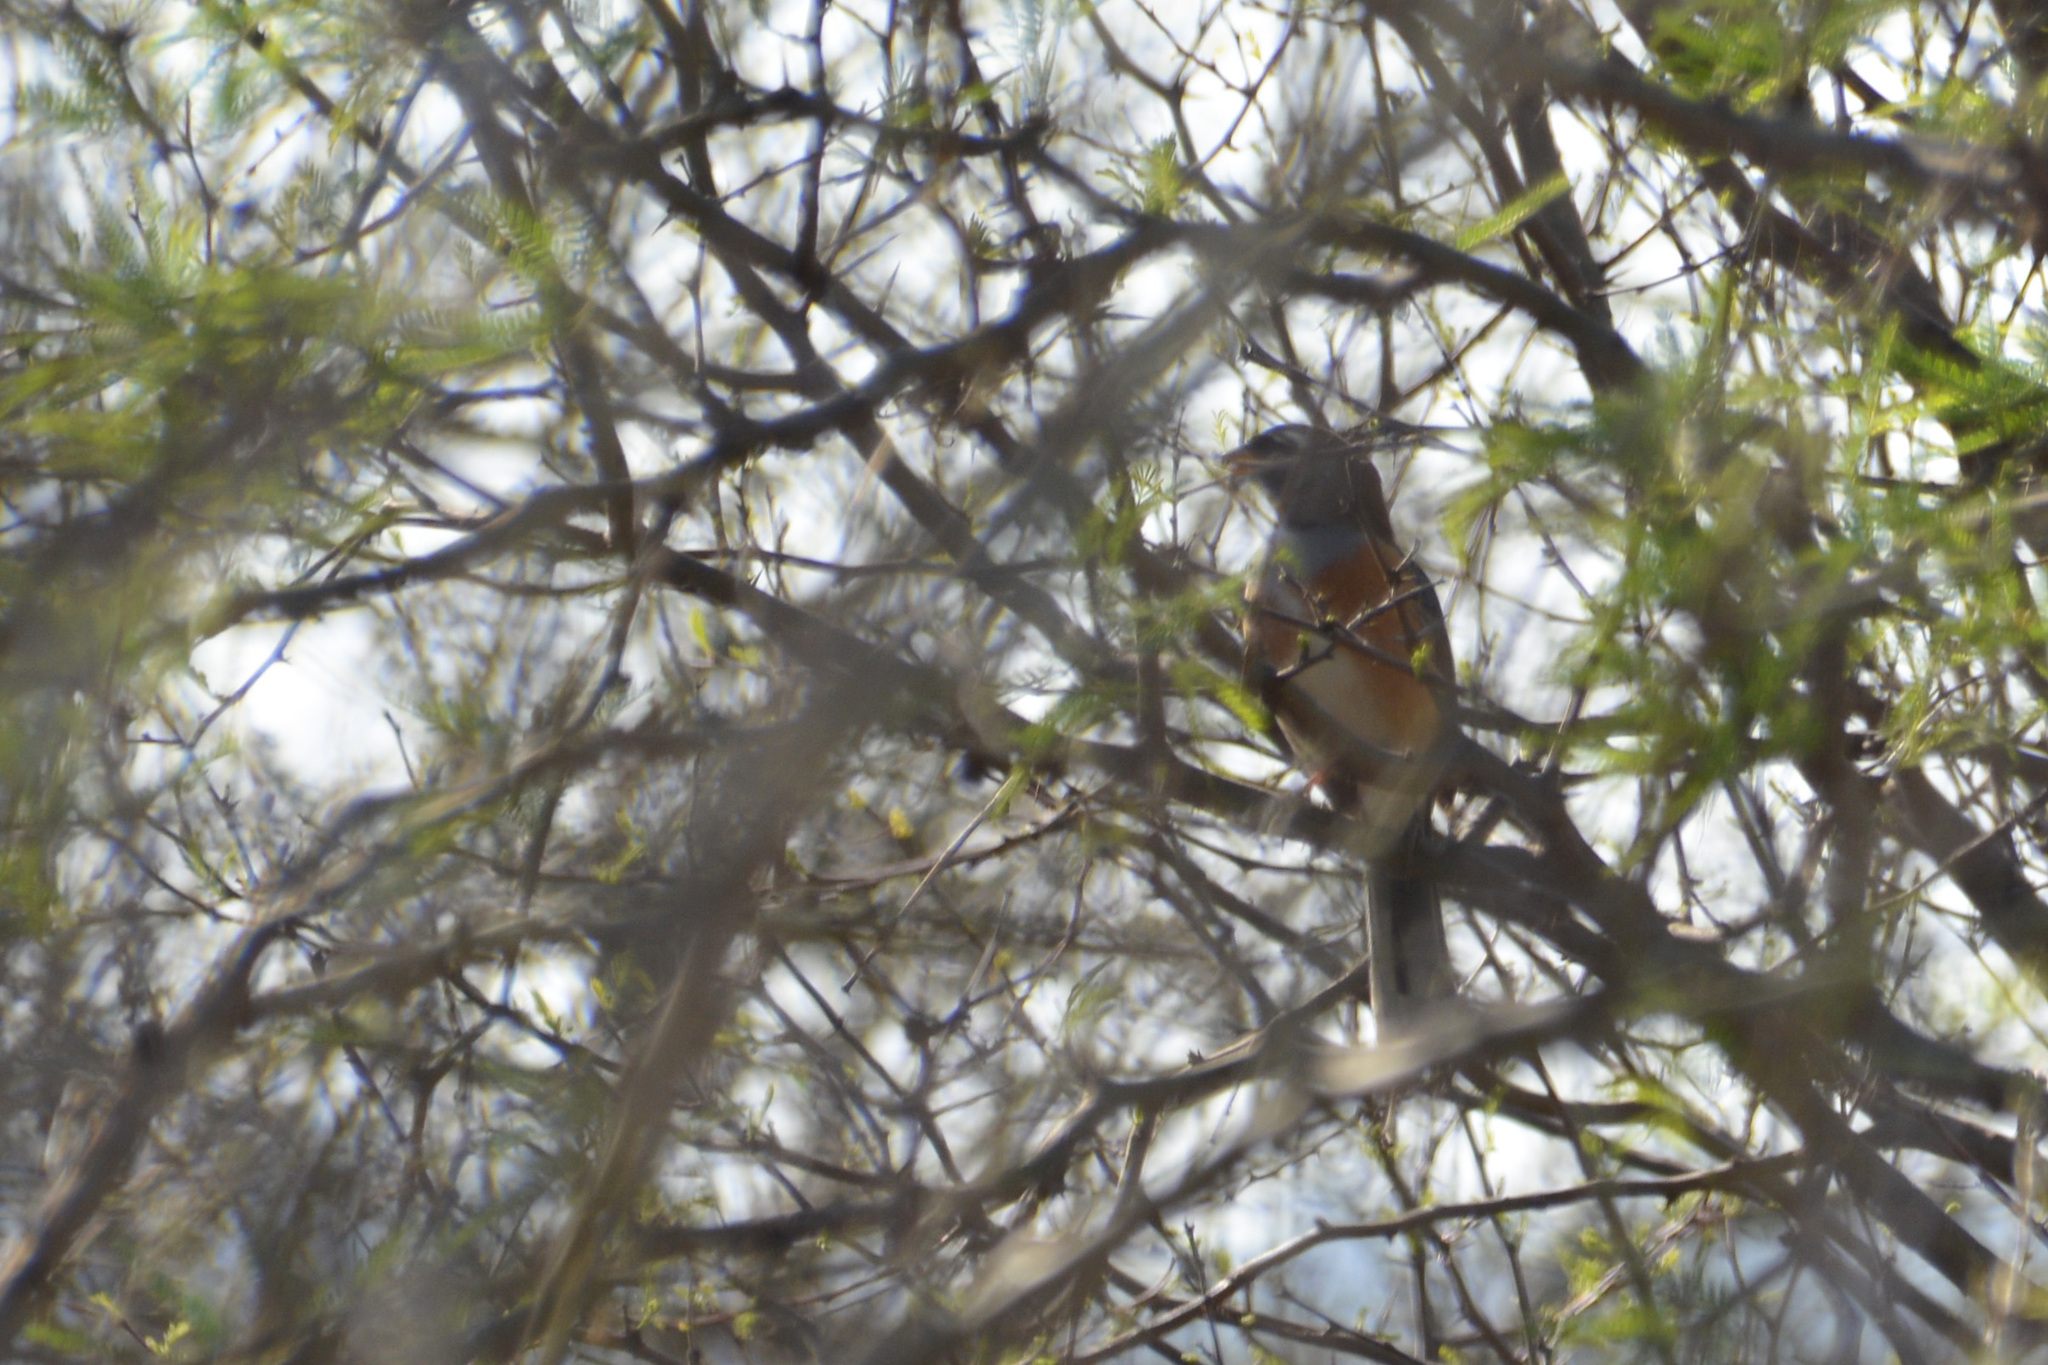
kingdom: Animalia
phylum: Chordata
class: Aves
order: Passeriformes
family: Thraupidae
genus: Saltatricula
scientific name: Saltatricula multicolor
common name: Many-colored chaco finch
